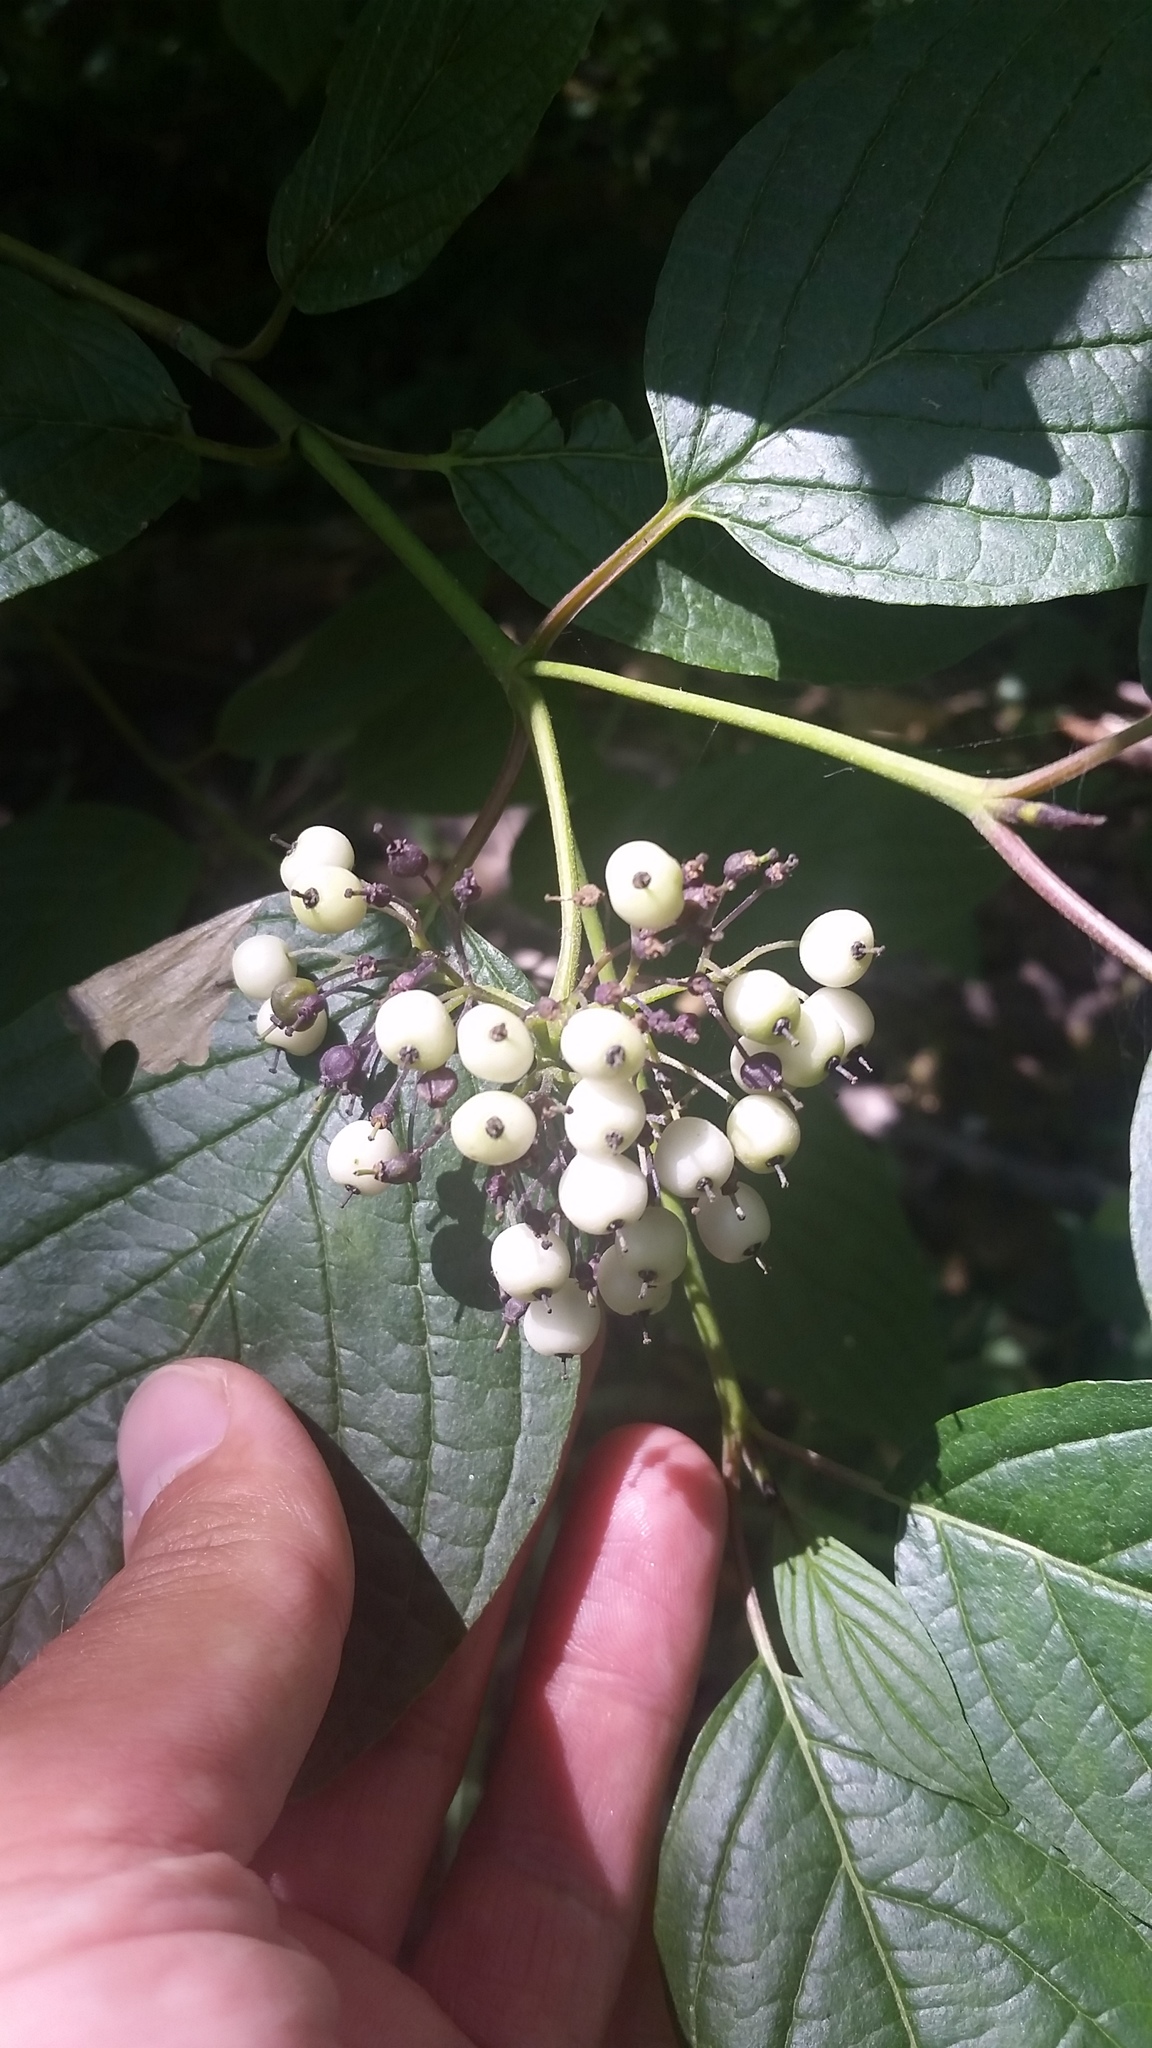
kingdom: Plantae
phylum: Tracheophyta
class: Magnoliopsida
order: Cornales
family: Cornaceae
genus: Cornus
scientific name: Cornus sericea
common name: Red-osier dogwood
